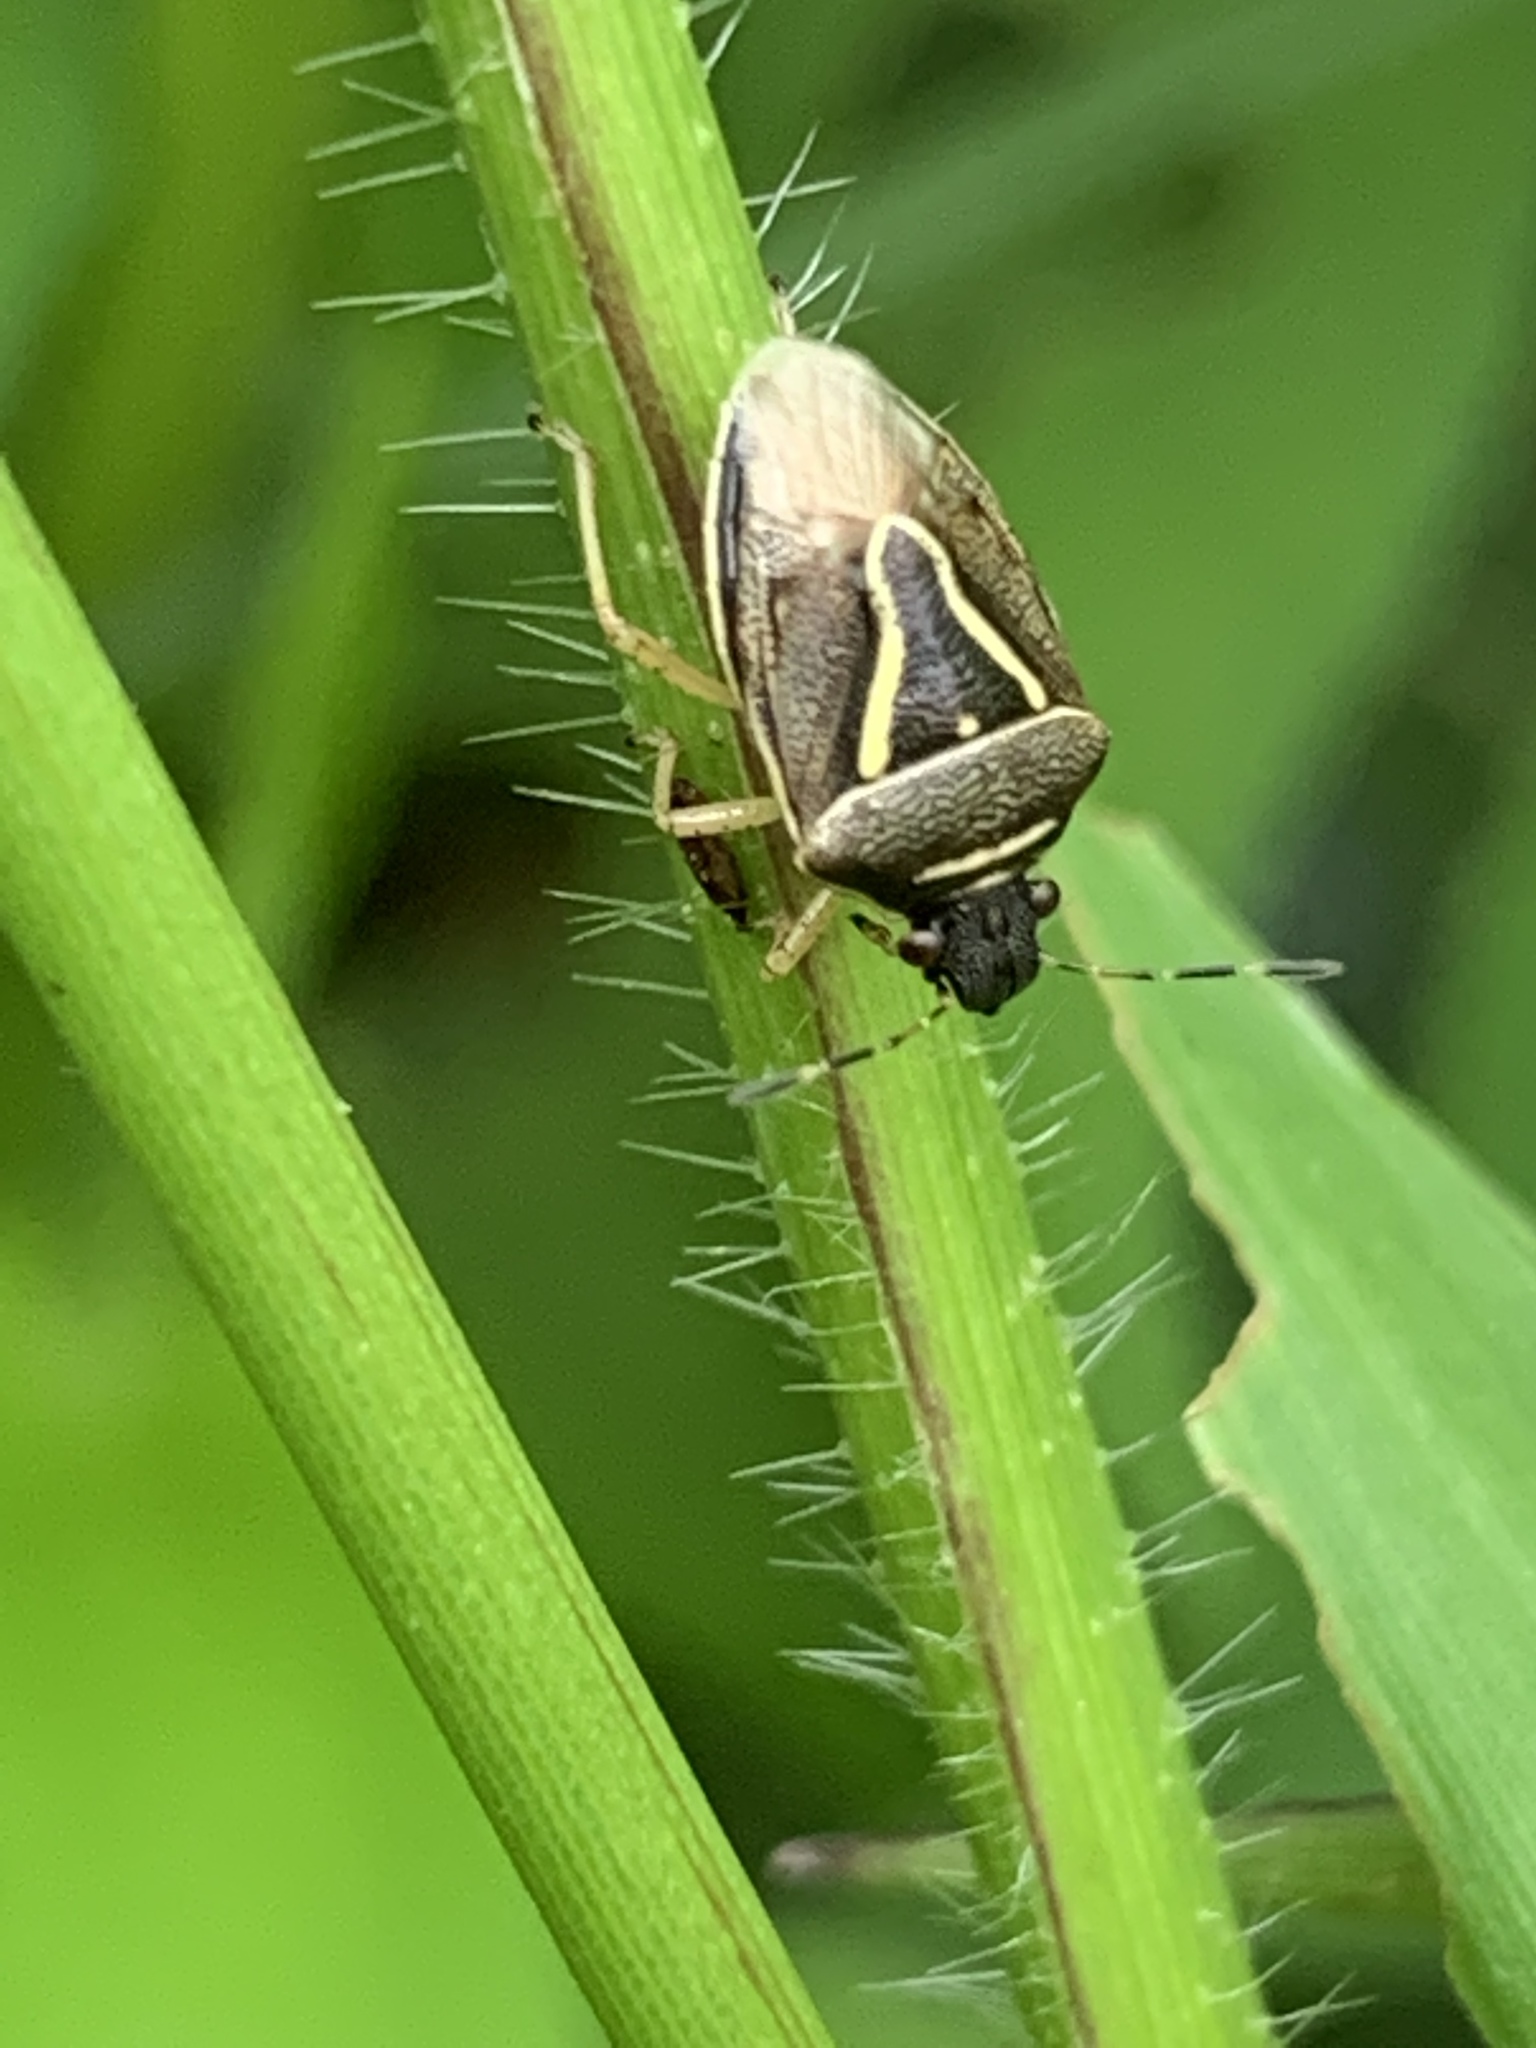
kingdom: Animalia
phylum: Arthropoda
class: Insecta
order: Hemiptera
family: Pentatomidae
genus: Mormidea
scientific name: Mormidea lugens
